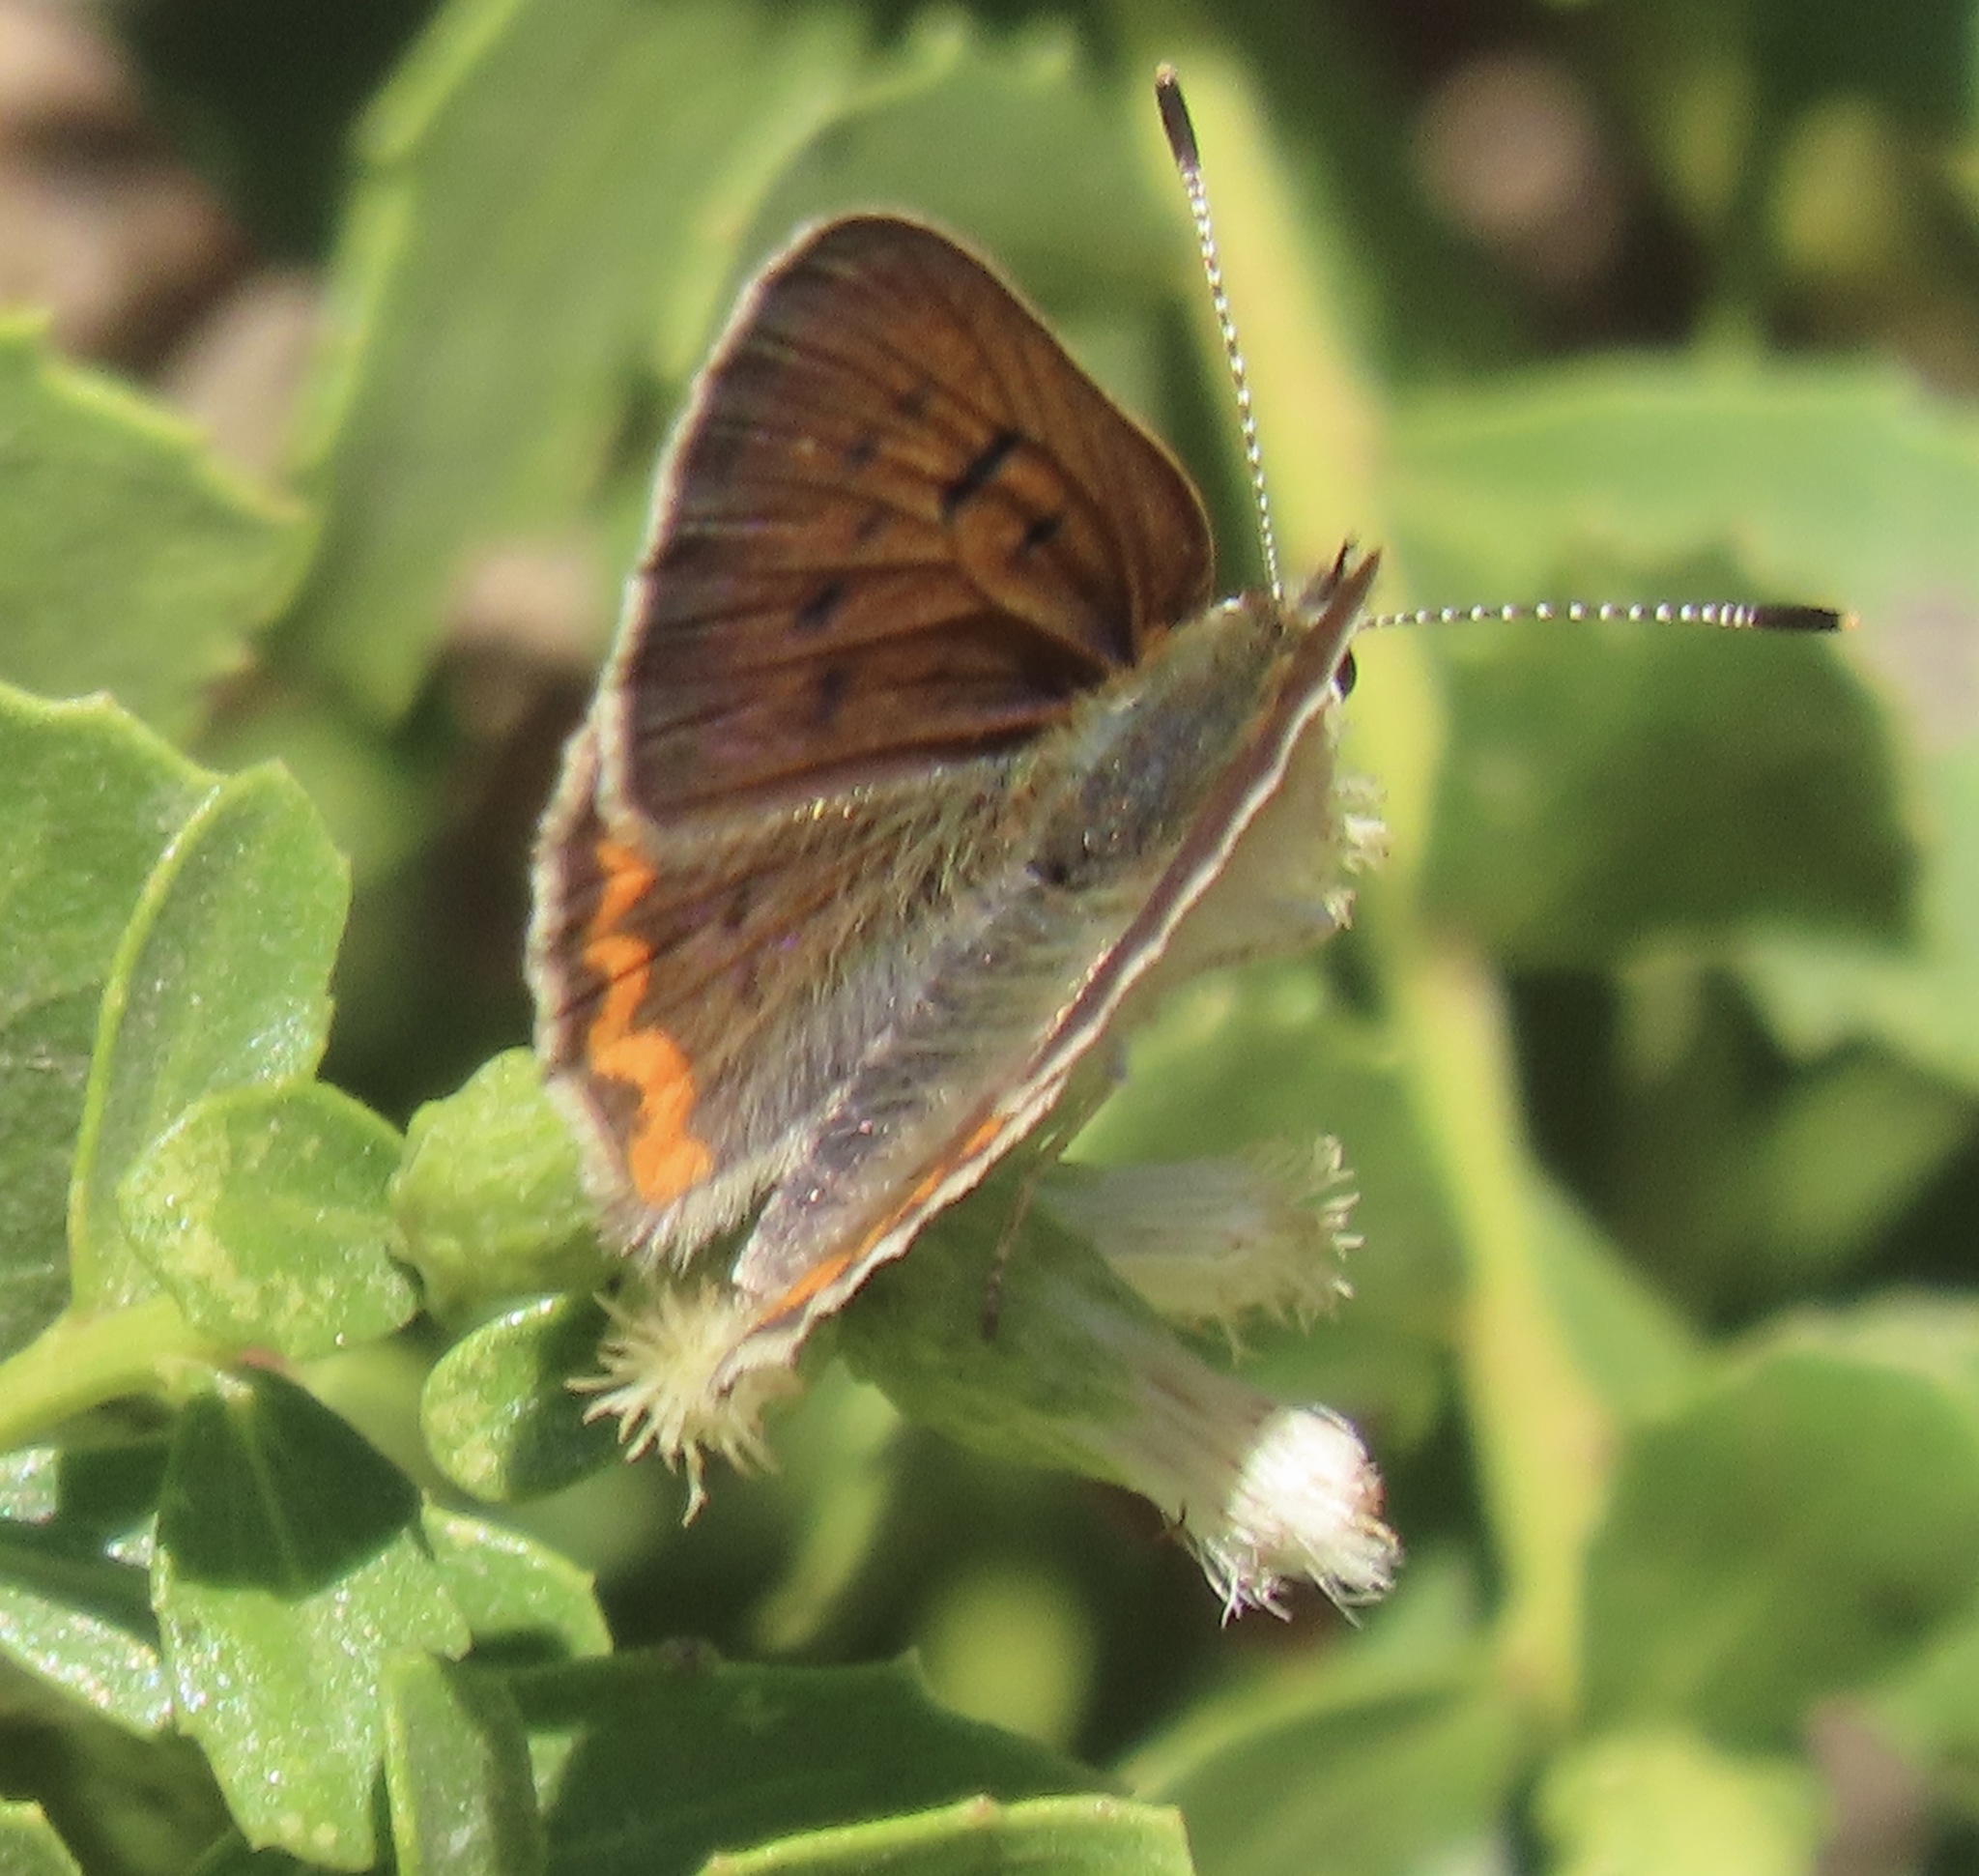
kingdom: Animalia
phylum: Arthropoda
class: Insecta
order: Lepidoptera
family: Lycaenidae
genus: Tharsalea
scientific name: Tharsalea helloides
